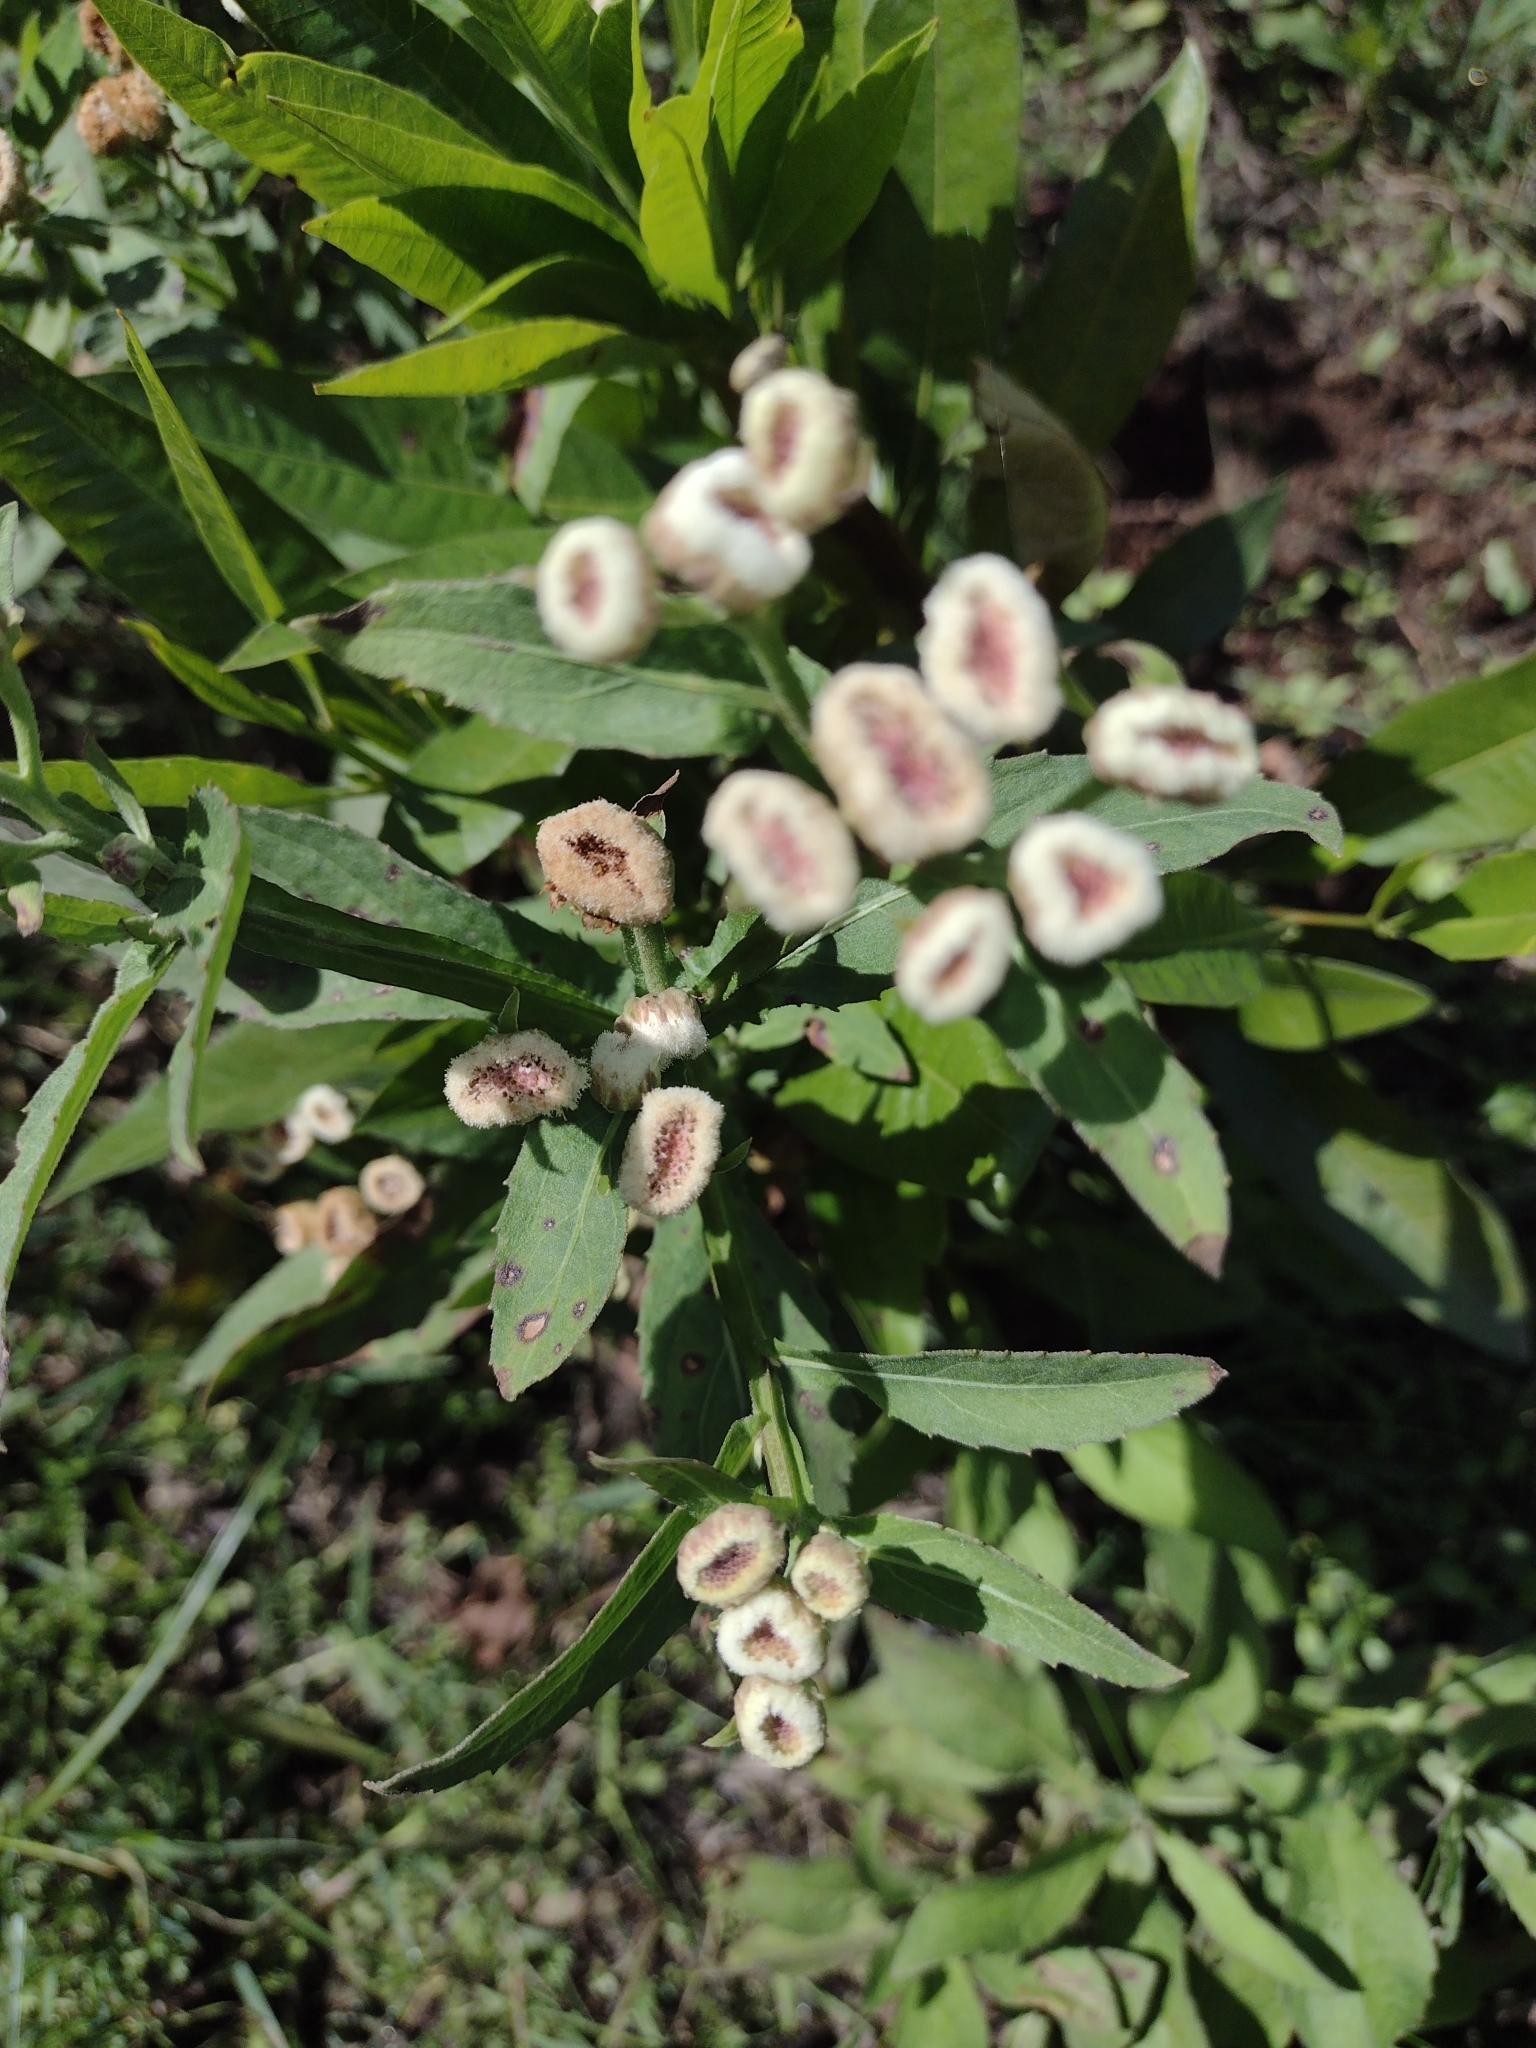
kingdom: Plantae
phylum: Tracheophyta
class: Magnoliopsida
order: Asterales
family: Asteraceae
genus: Pluchea
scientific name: Pluchea sagittalis
